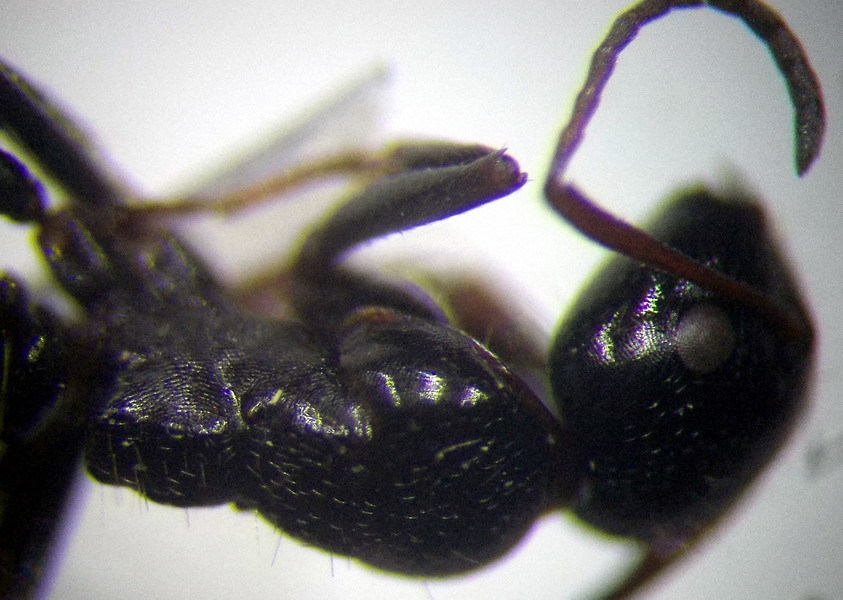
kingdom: Animalia
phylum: Arthropoda
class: Insecta
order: Hymenoptera
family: Formicidae
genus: Camponotus
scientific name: Camponotus piceus
